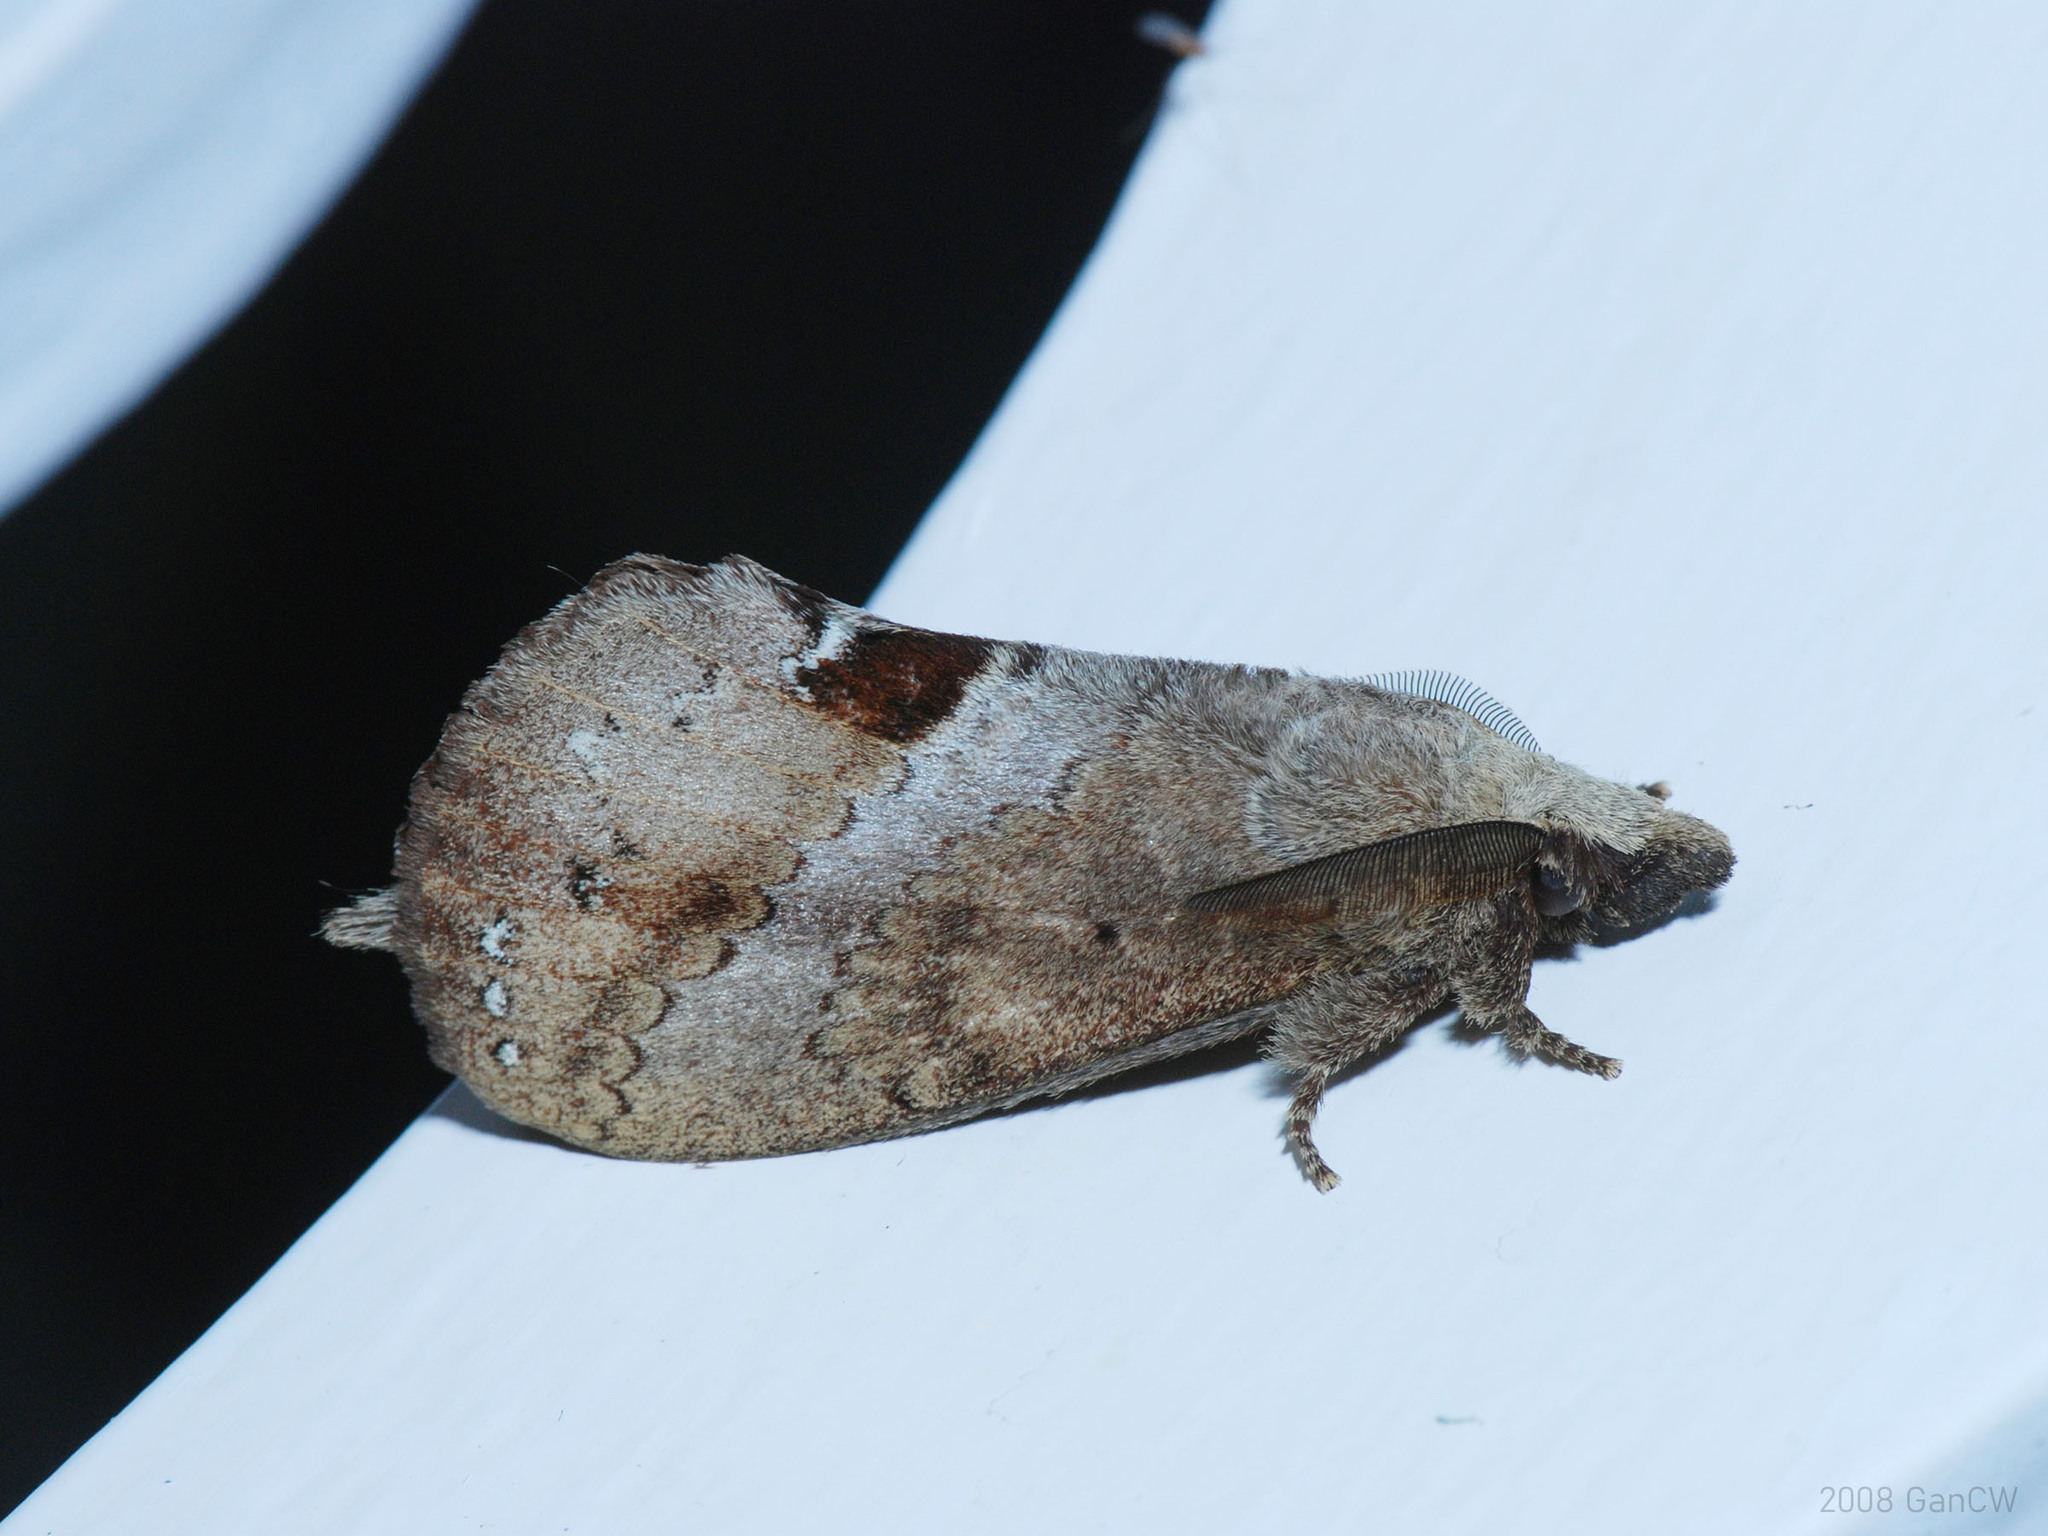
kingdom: Animalia
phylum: Arthropoda
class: Insecta
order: Lepidoptera
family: Lasiocampidae
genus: Lajonquierea
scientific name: Lajonquierea poeciloptera
